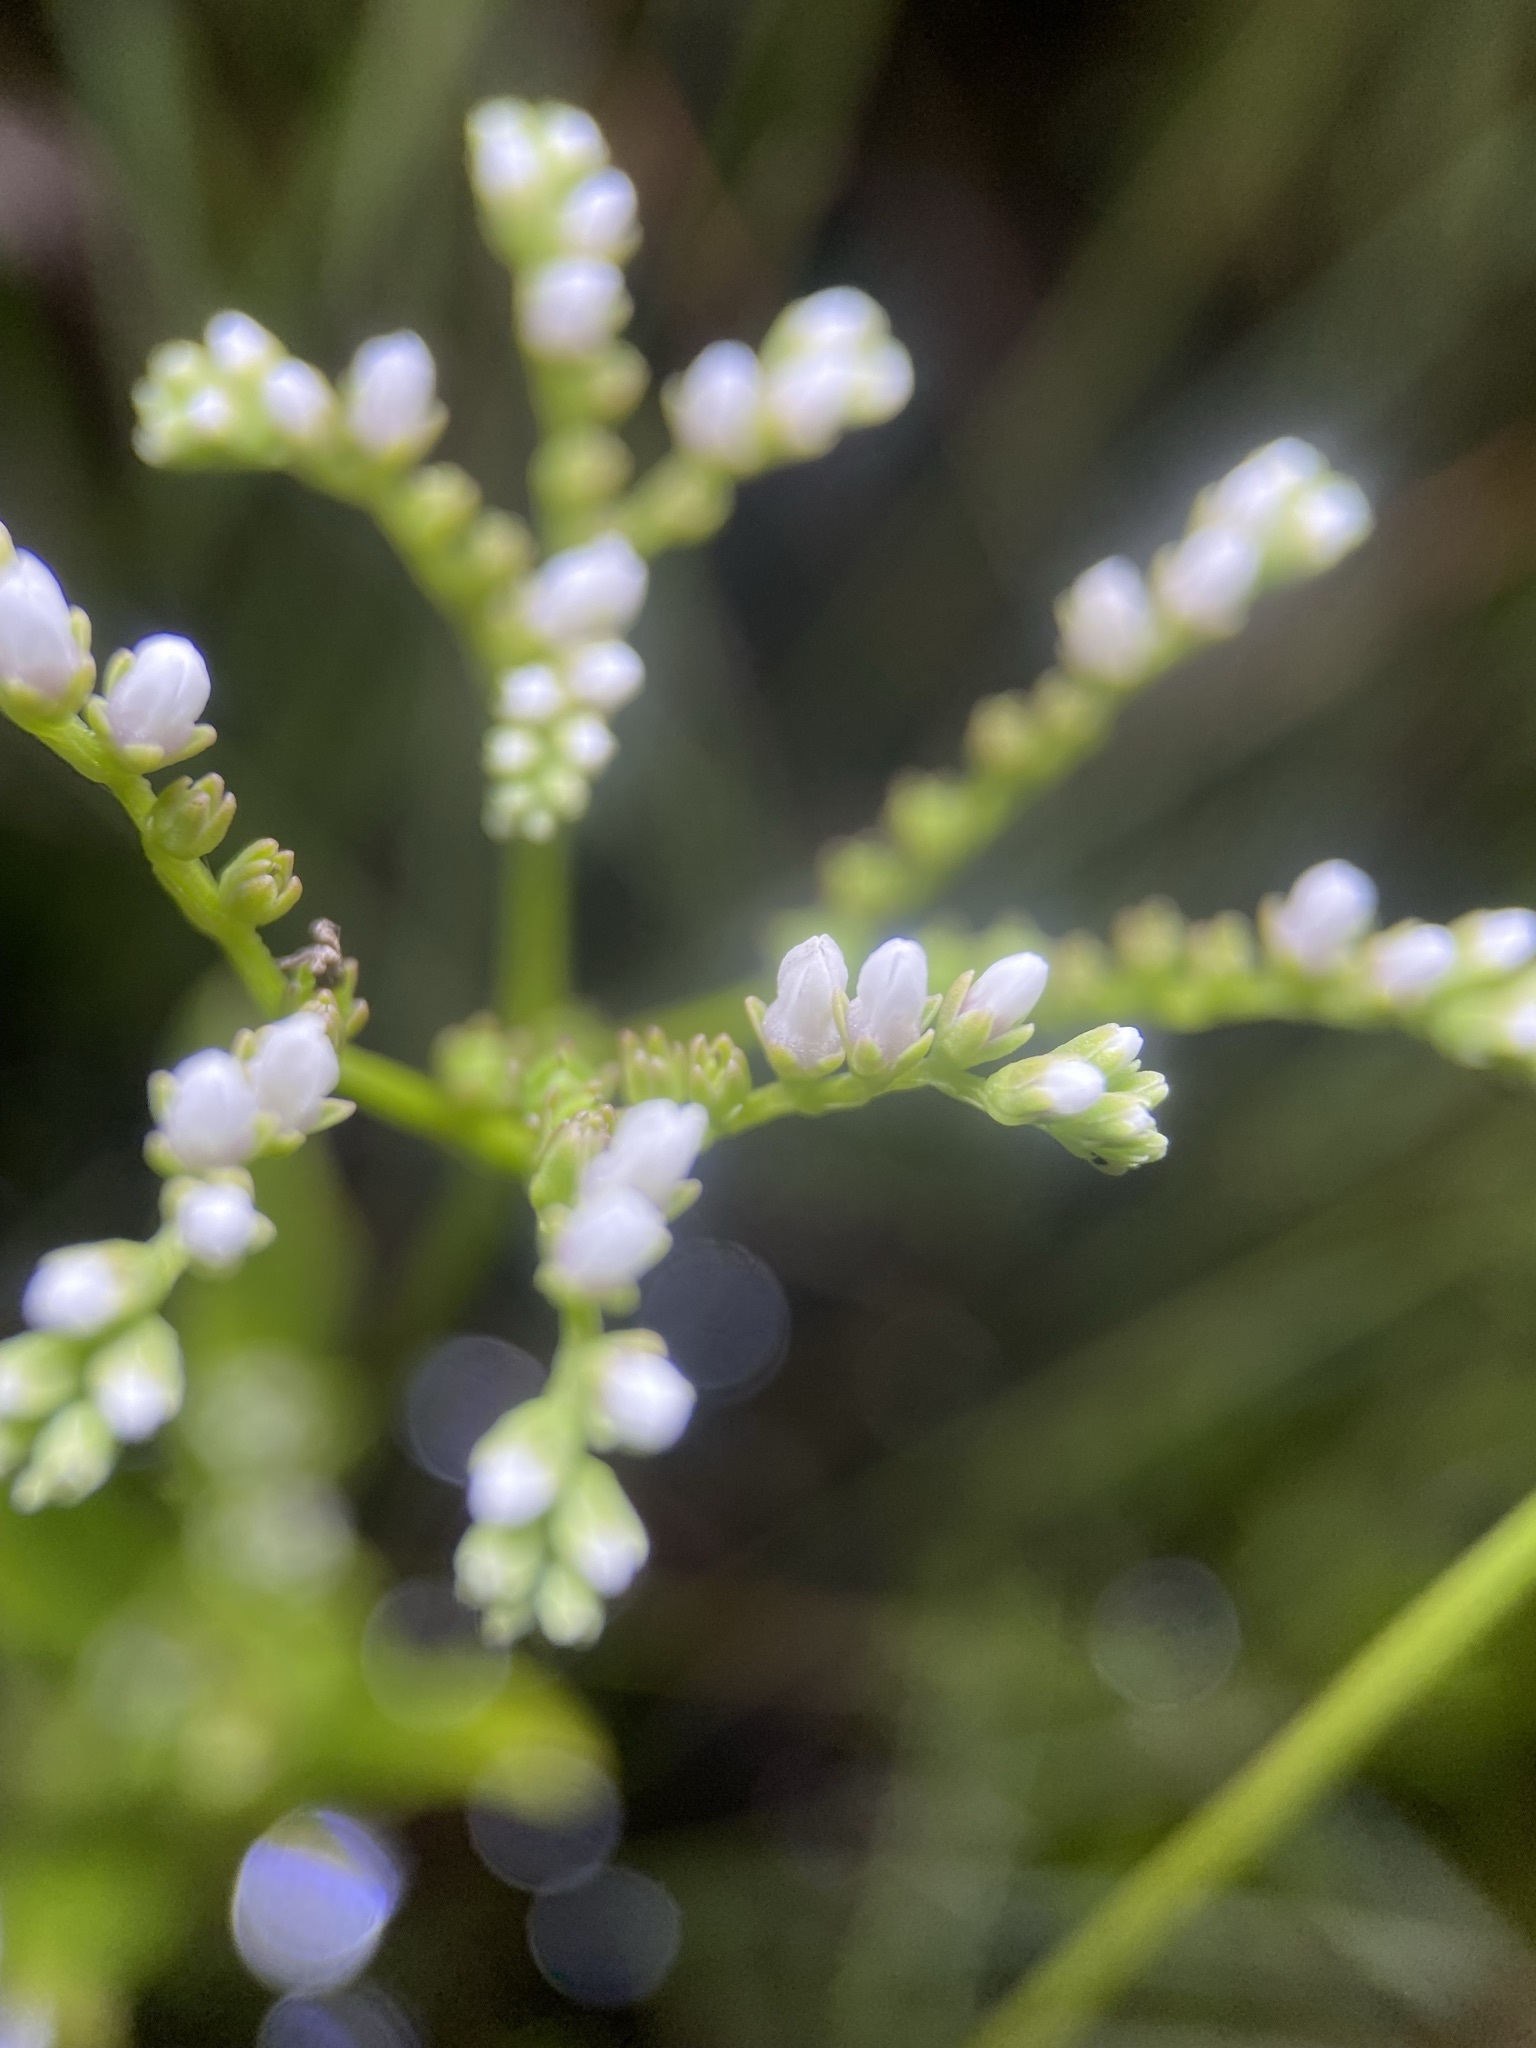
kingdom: Plantae
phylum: Tracheophyta
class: Magnoliopsida
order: Gentianales
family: Loganiaceae
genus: Mitreola
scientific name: Mitreola petiolata
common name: Lax hornpod
